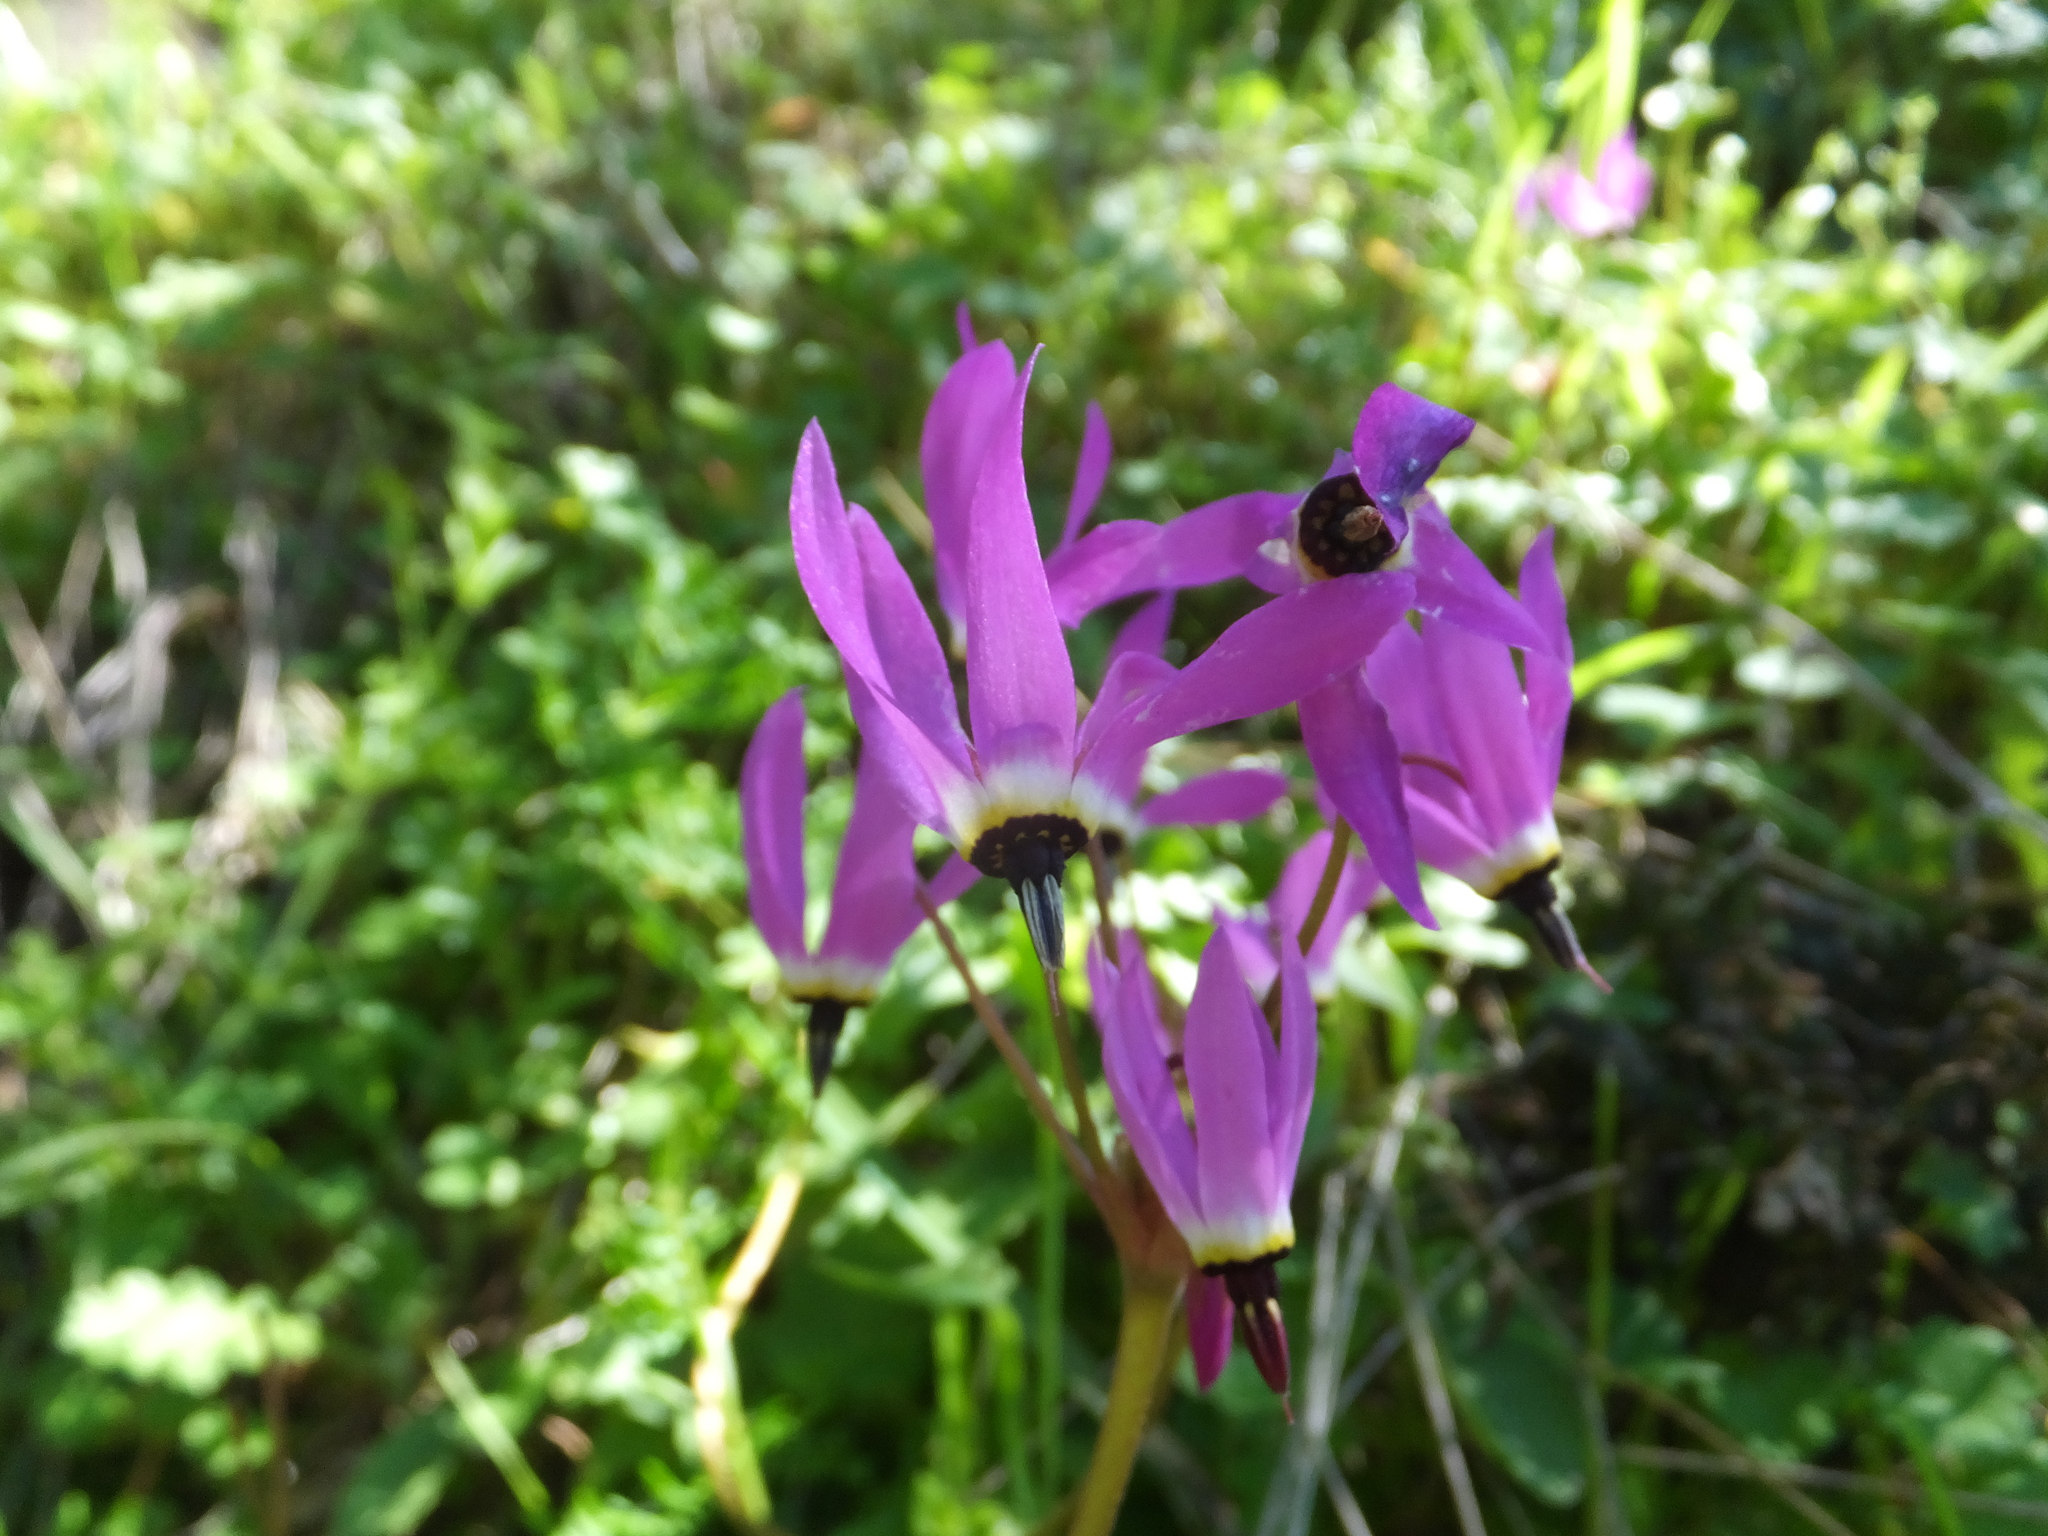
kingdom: Plantae
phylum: Tracheophyta
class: Magnoliopsida
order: Ericales
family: Primulaceae
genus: Dodecatheon
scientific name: Dodecatheon hendersonii
